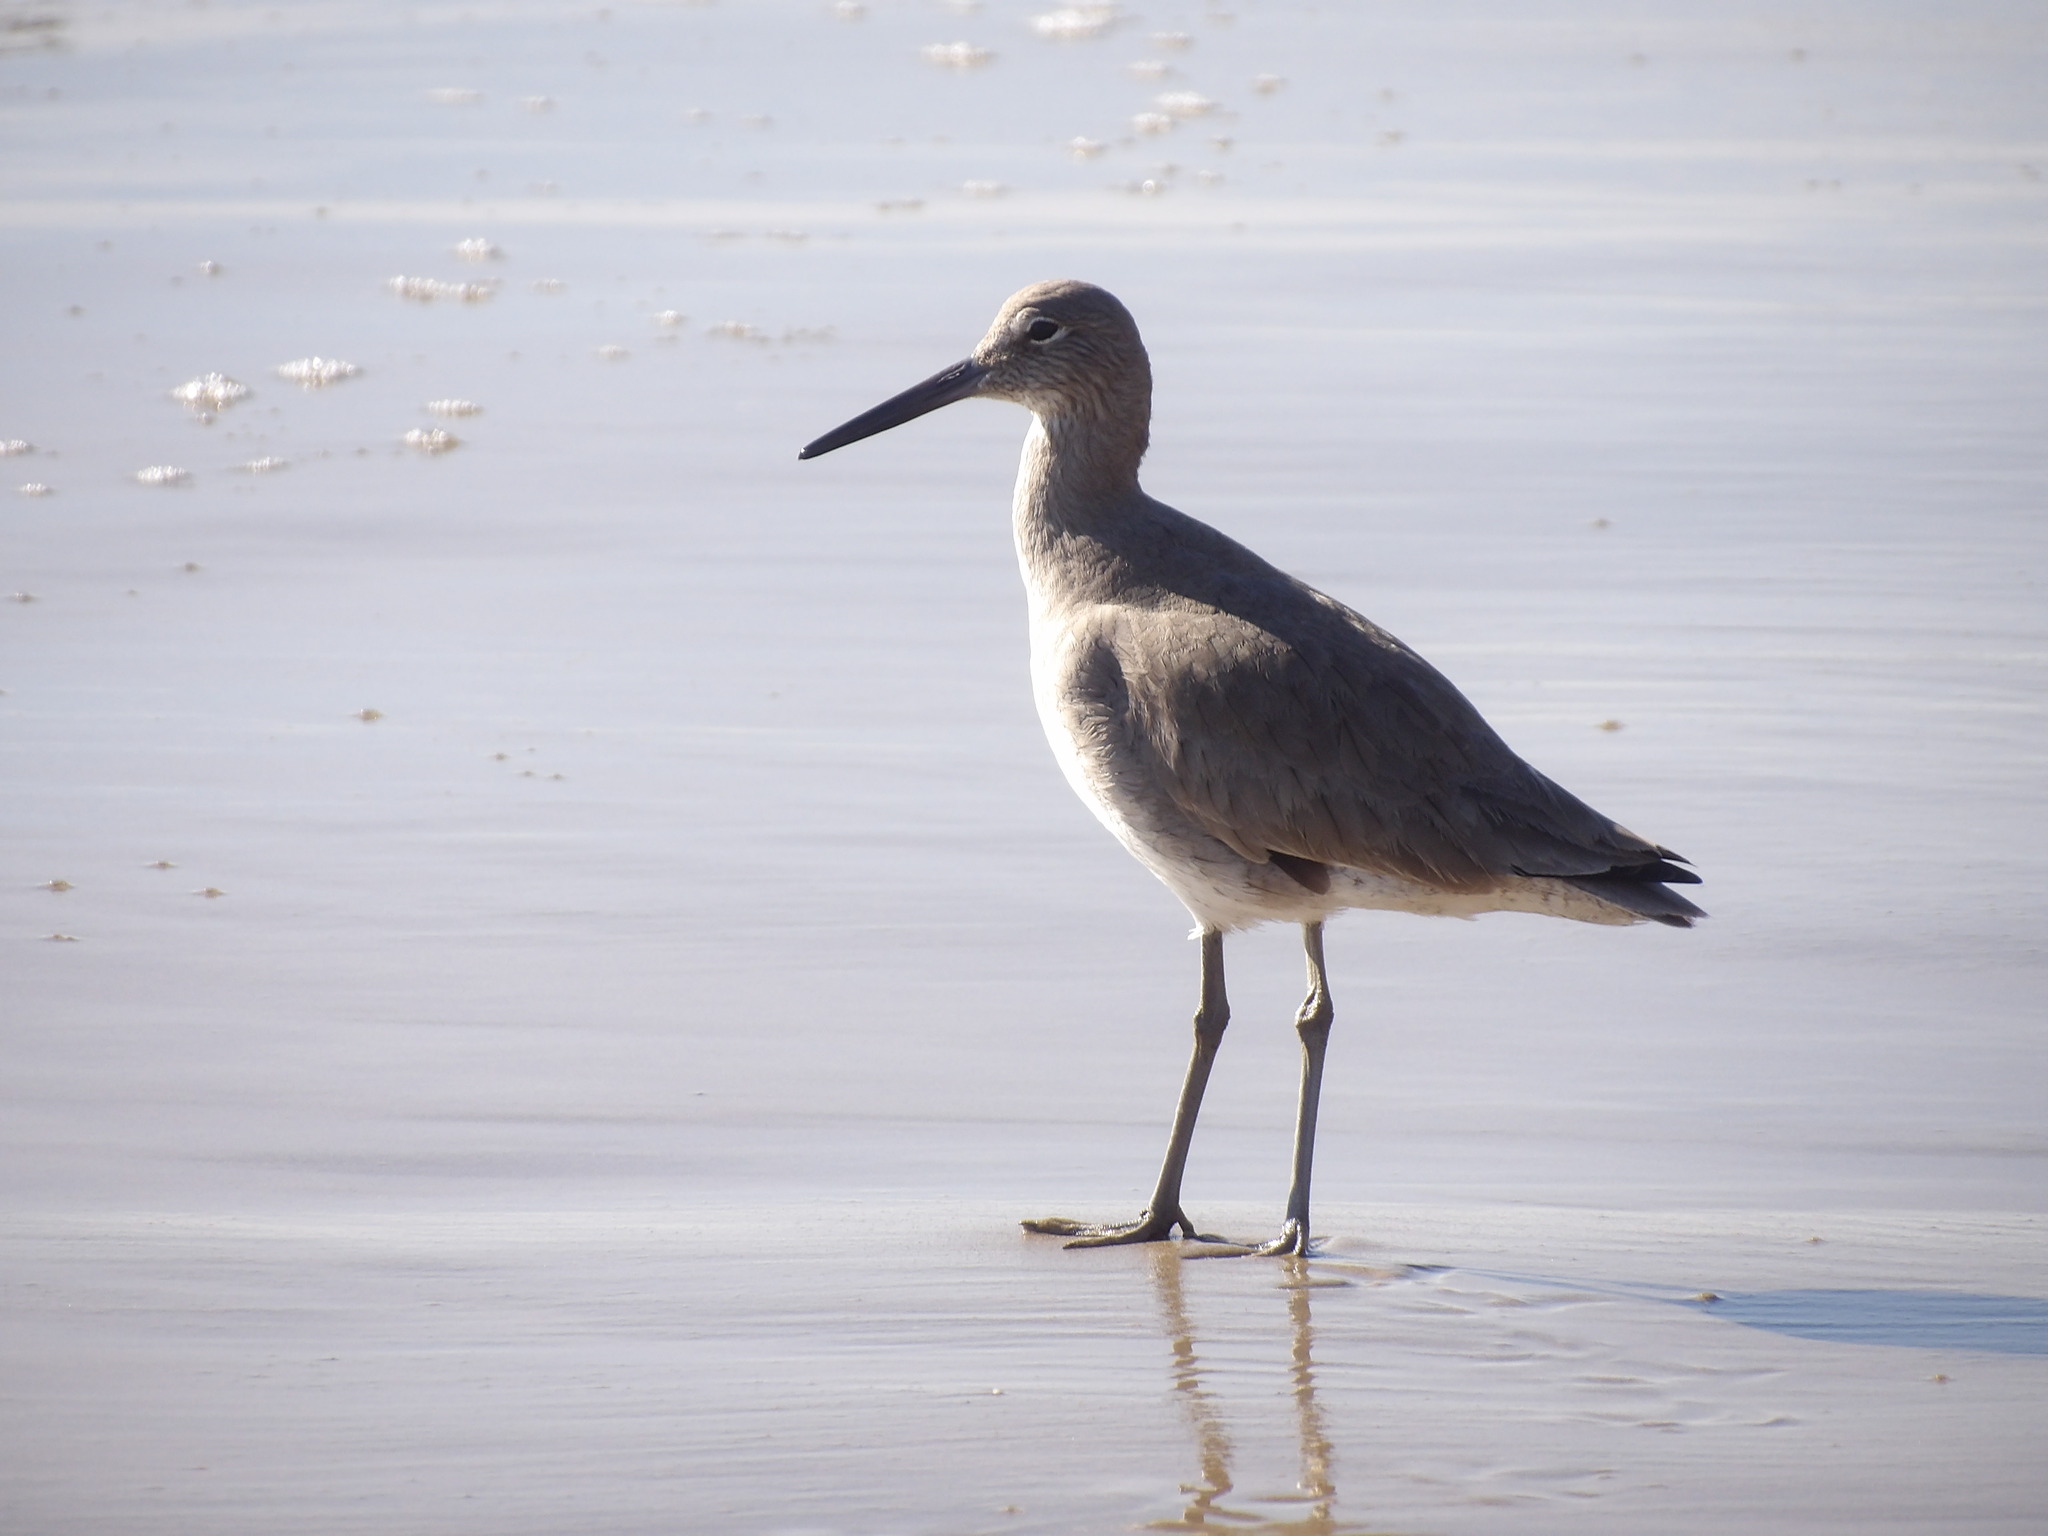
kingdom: Animalia
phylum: Chordata
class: Aves
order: Charadriiformes
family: Scolopacidae
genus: Tringa
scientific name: Tringa semipalmata
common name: Willet
